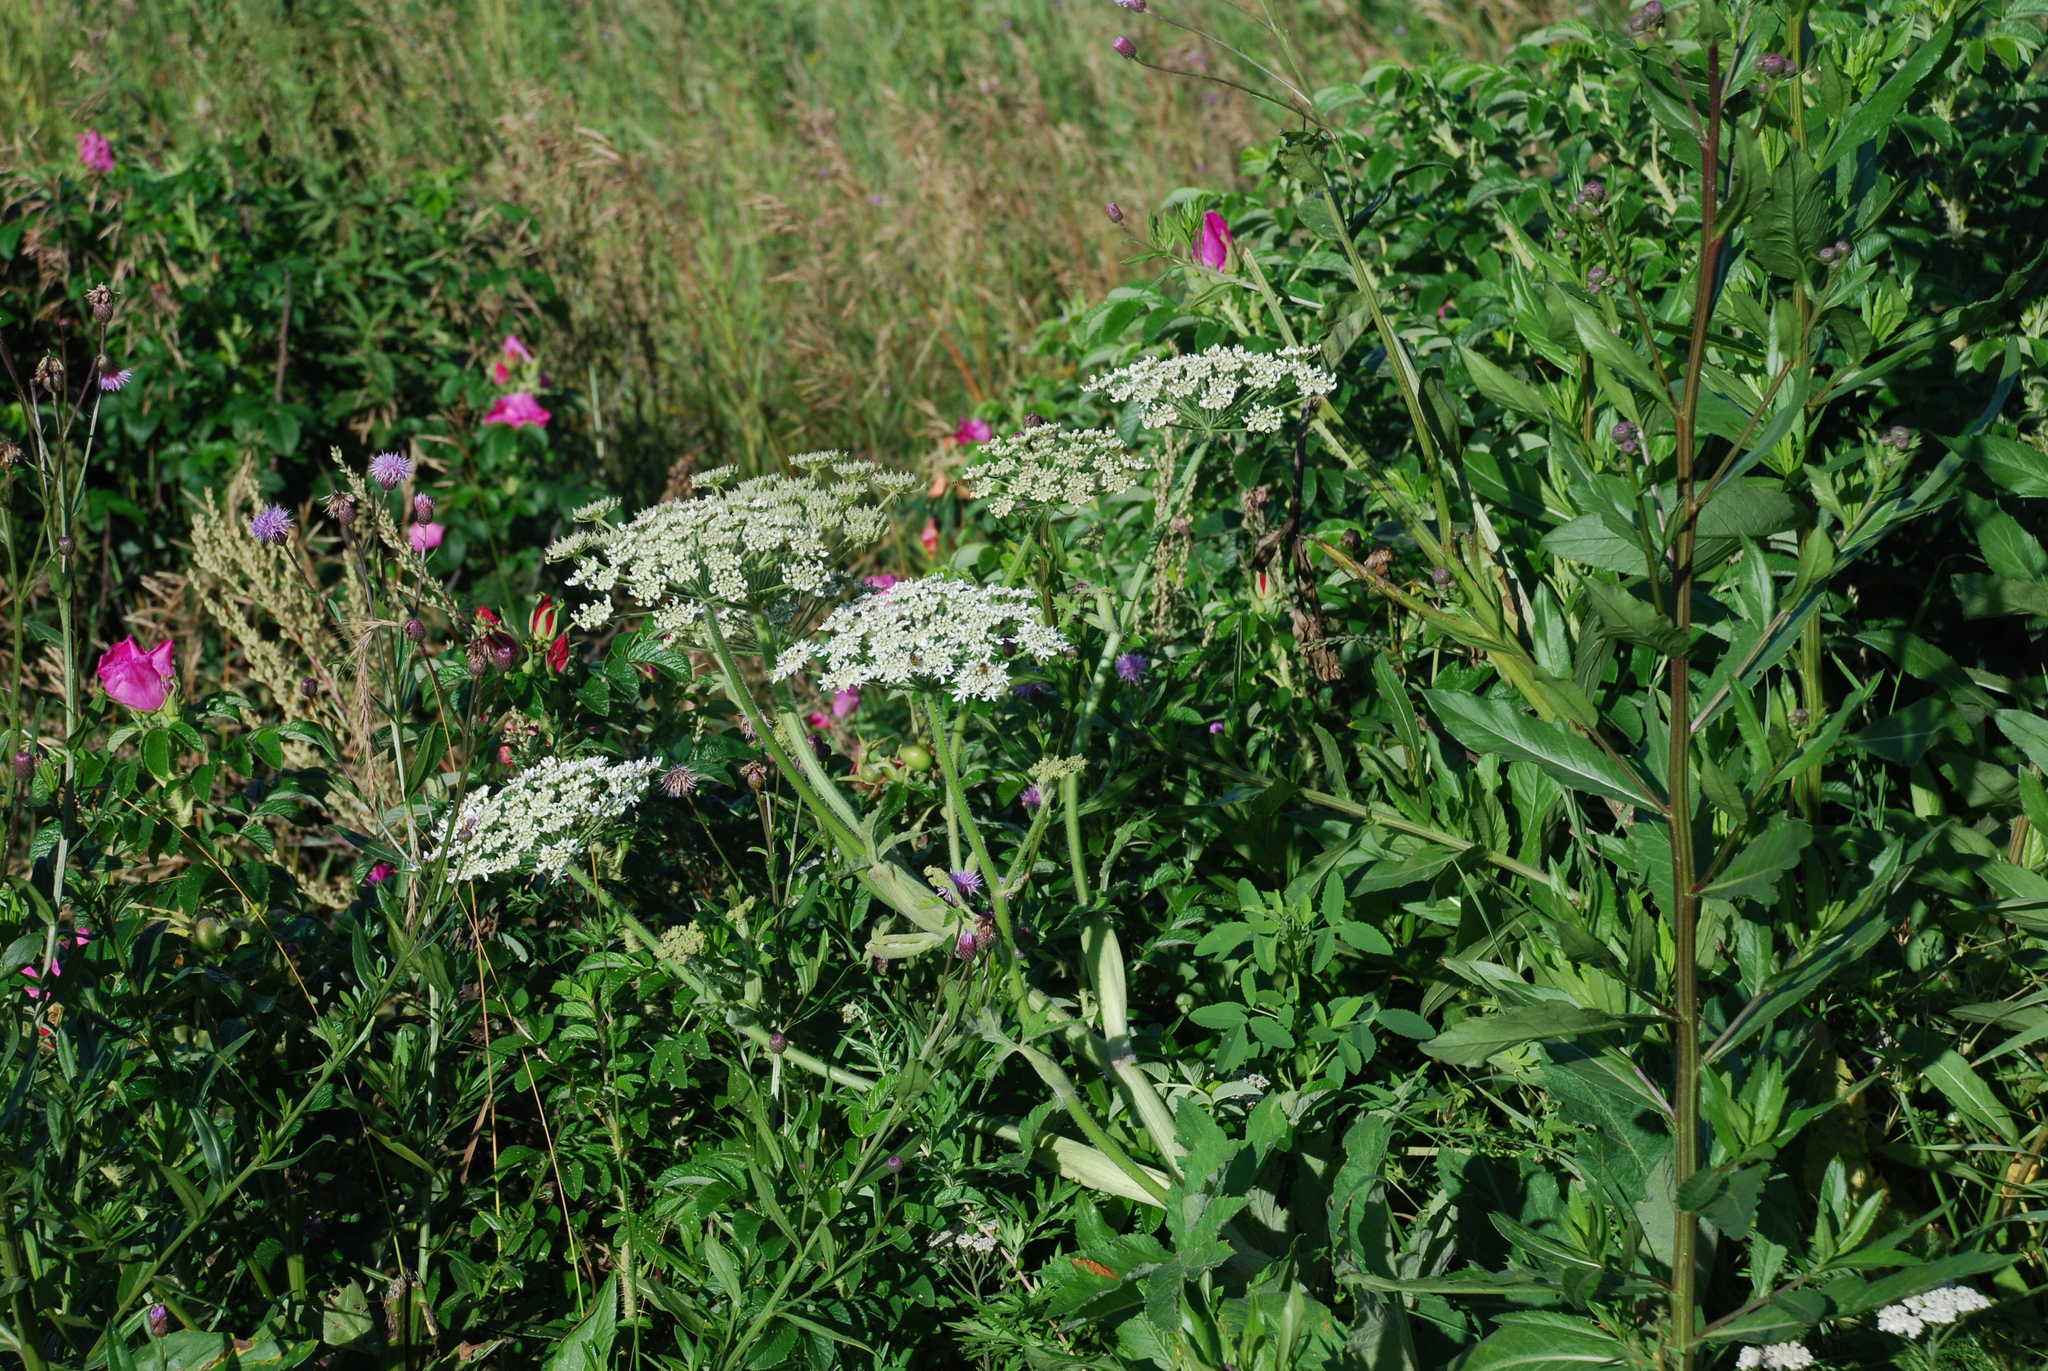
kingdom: Plantae
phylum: Tracheophyta
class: Magnoliopsida
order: Apiales
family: Apiaceae
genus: Heracleum
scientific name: Heracleum dissectum
